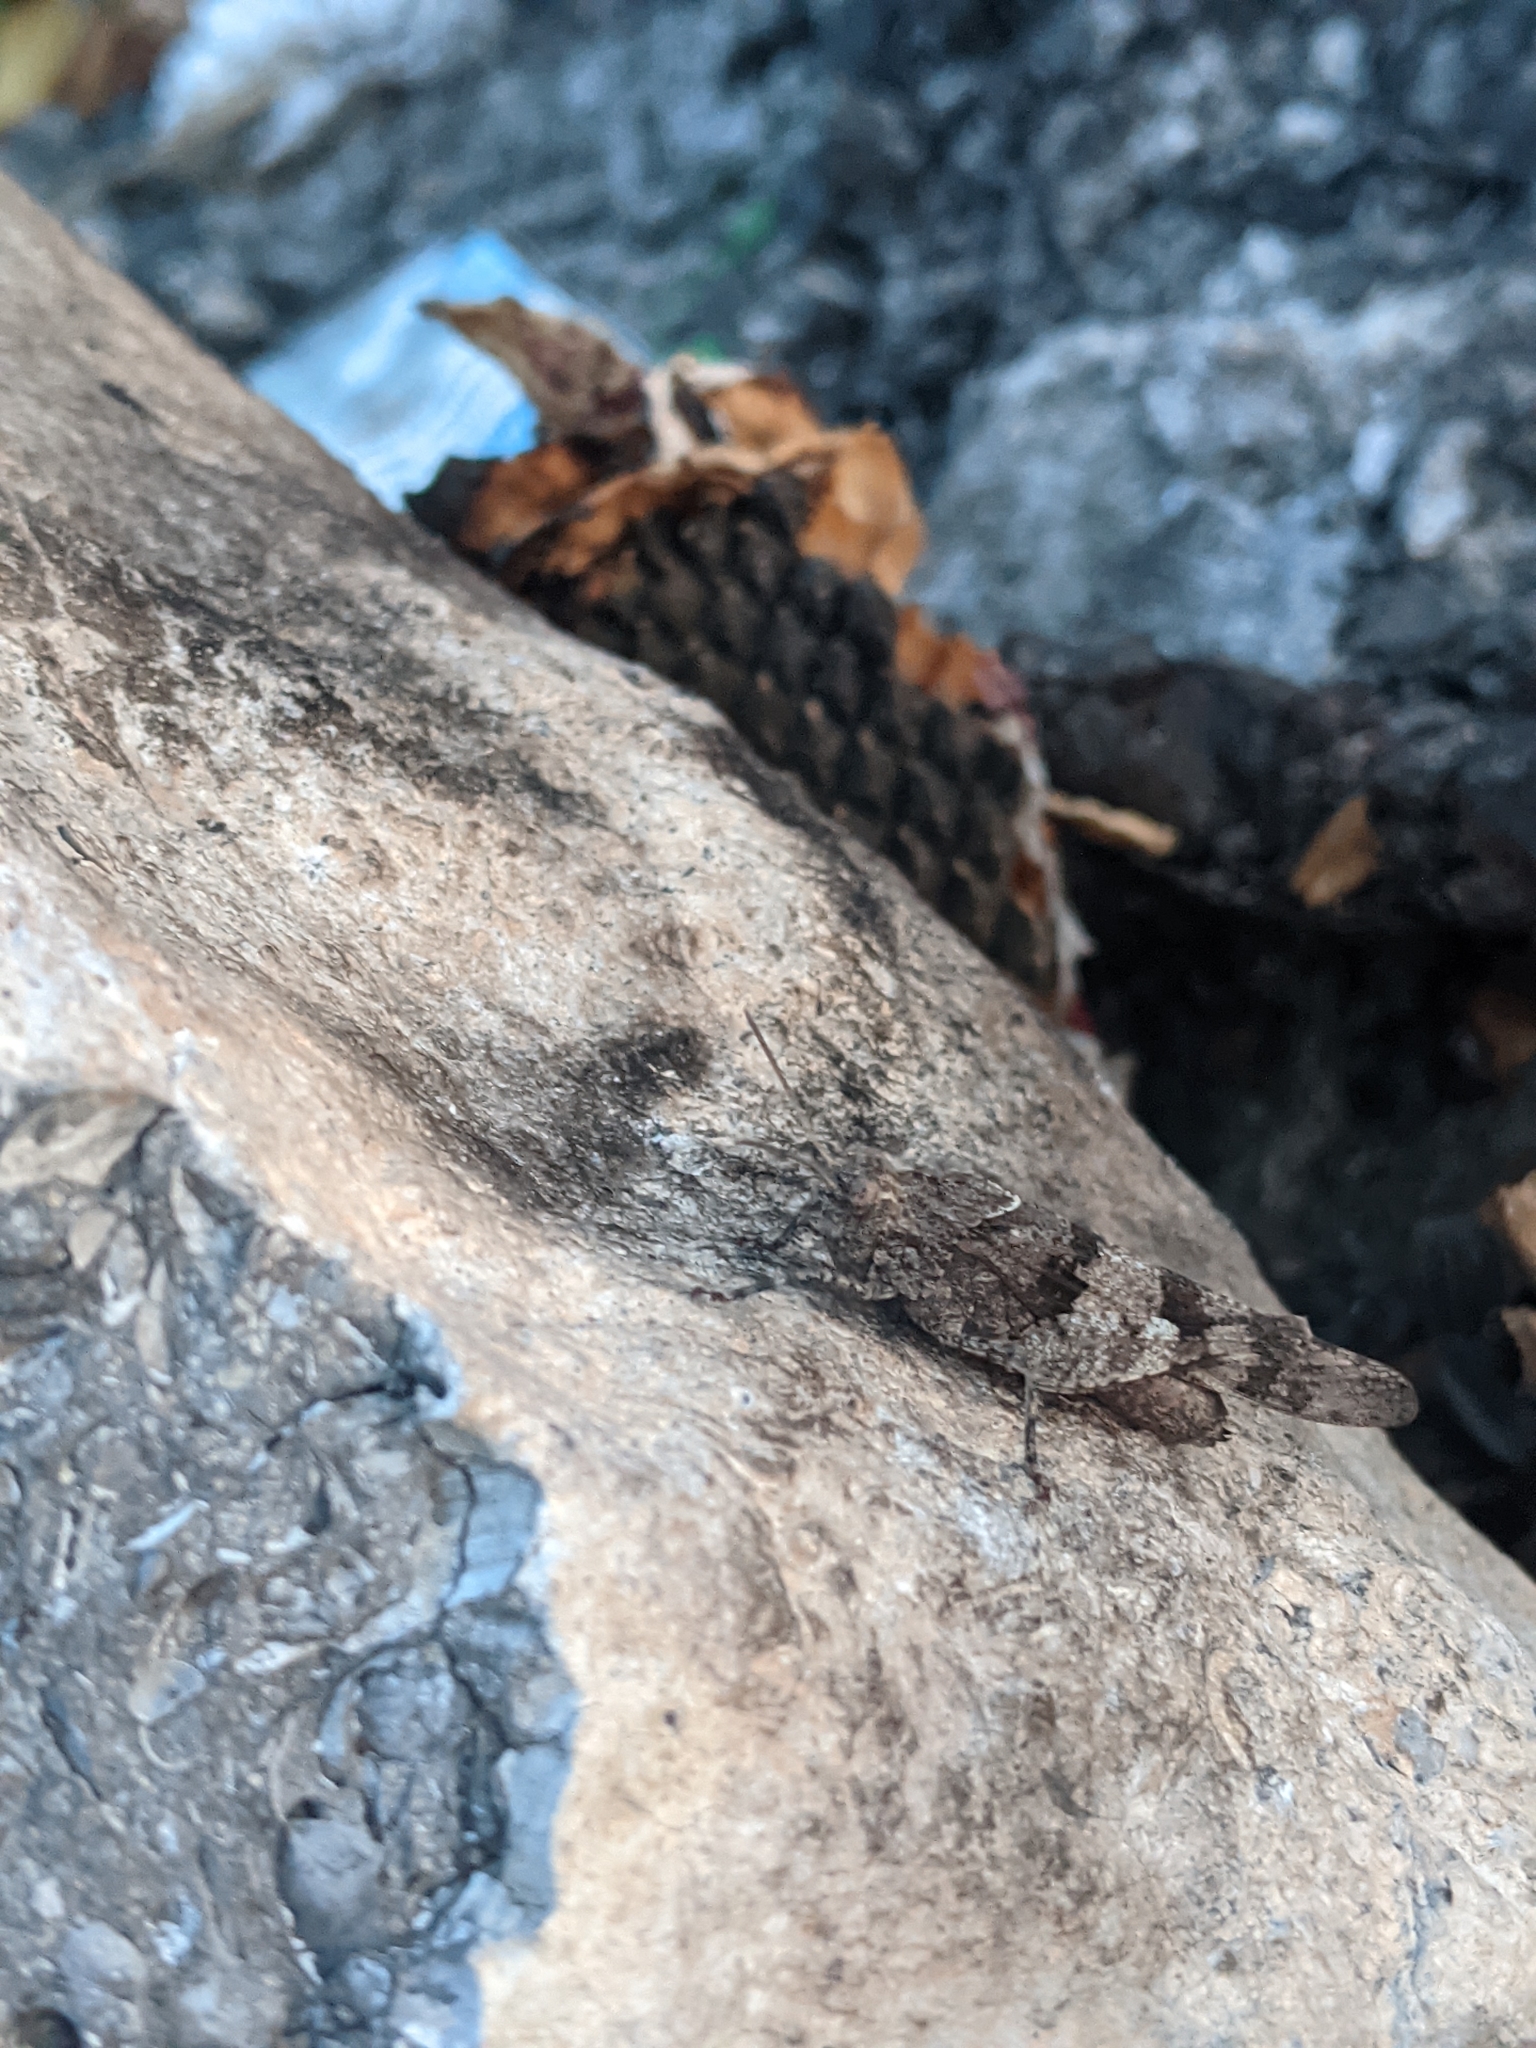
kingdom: Animalia
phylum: Arthropoda
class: Insecta
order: Orthoptera
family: Acrididae
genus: Oedipoda
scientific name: Oedipoda caerulescens
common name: Blue-winged grasshopper
